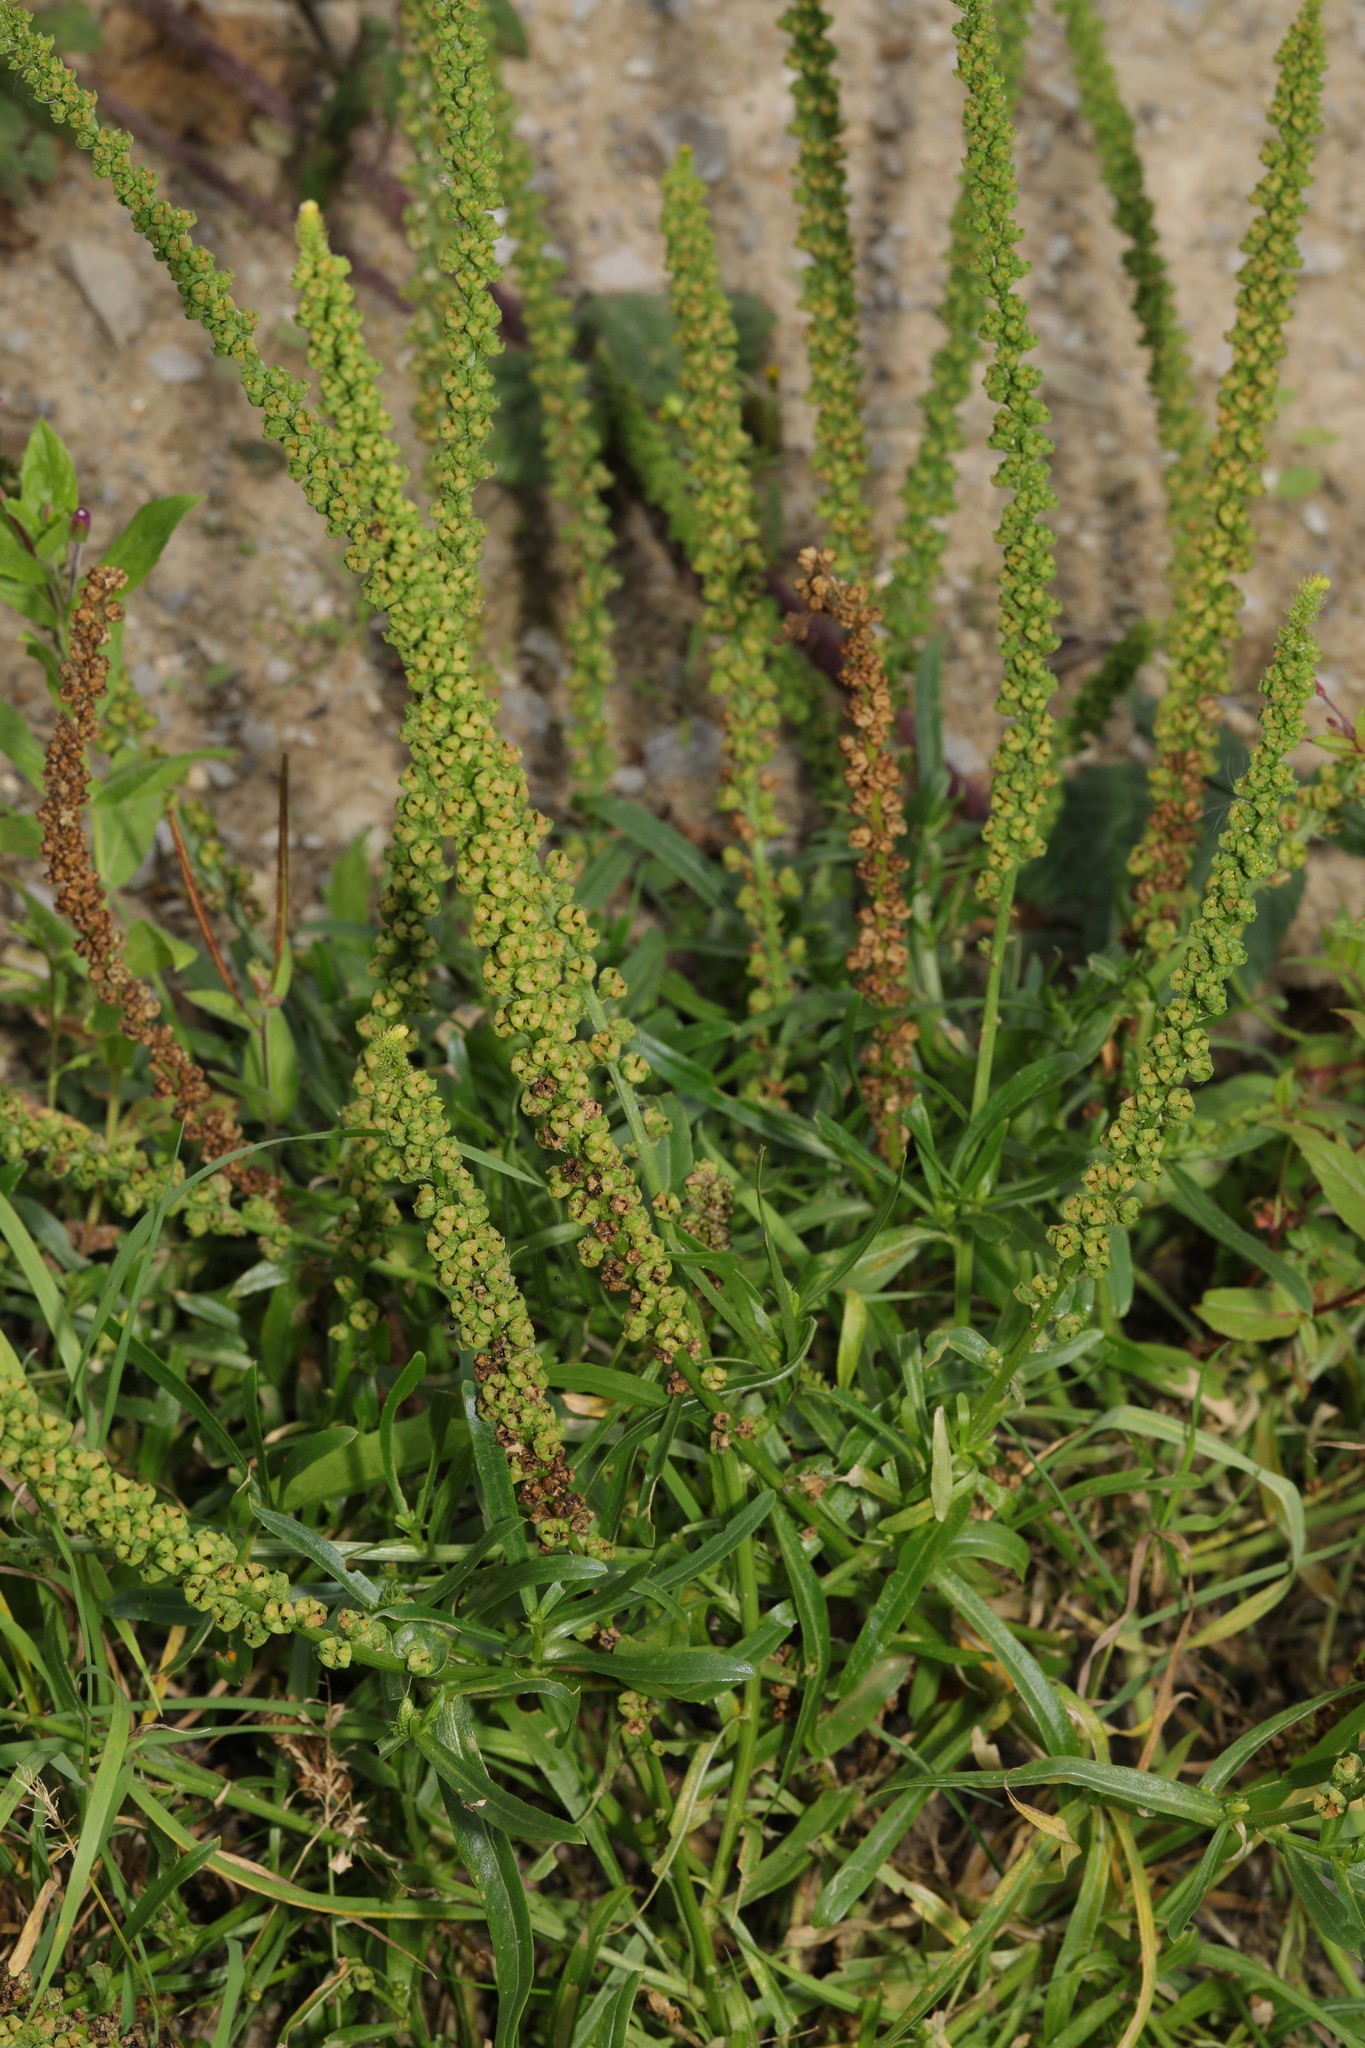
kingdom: Plantae
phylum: Tracheophyta
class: Magnoliopsida
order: Brassicales
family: Resedaceae
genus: Reseda
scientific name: Reseda luteola
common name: Weld
